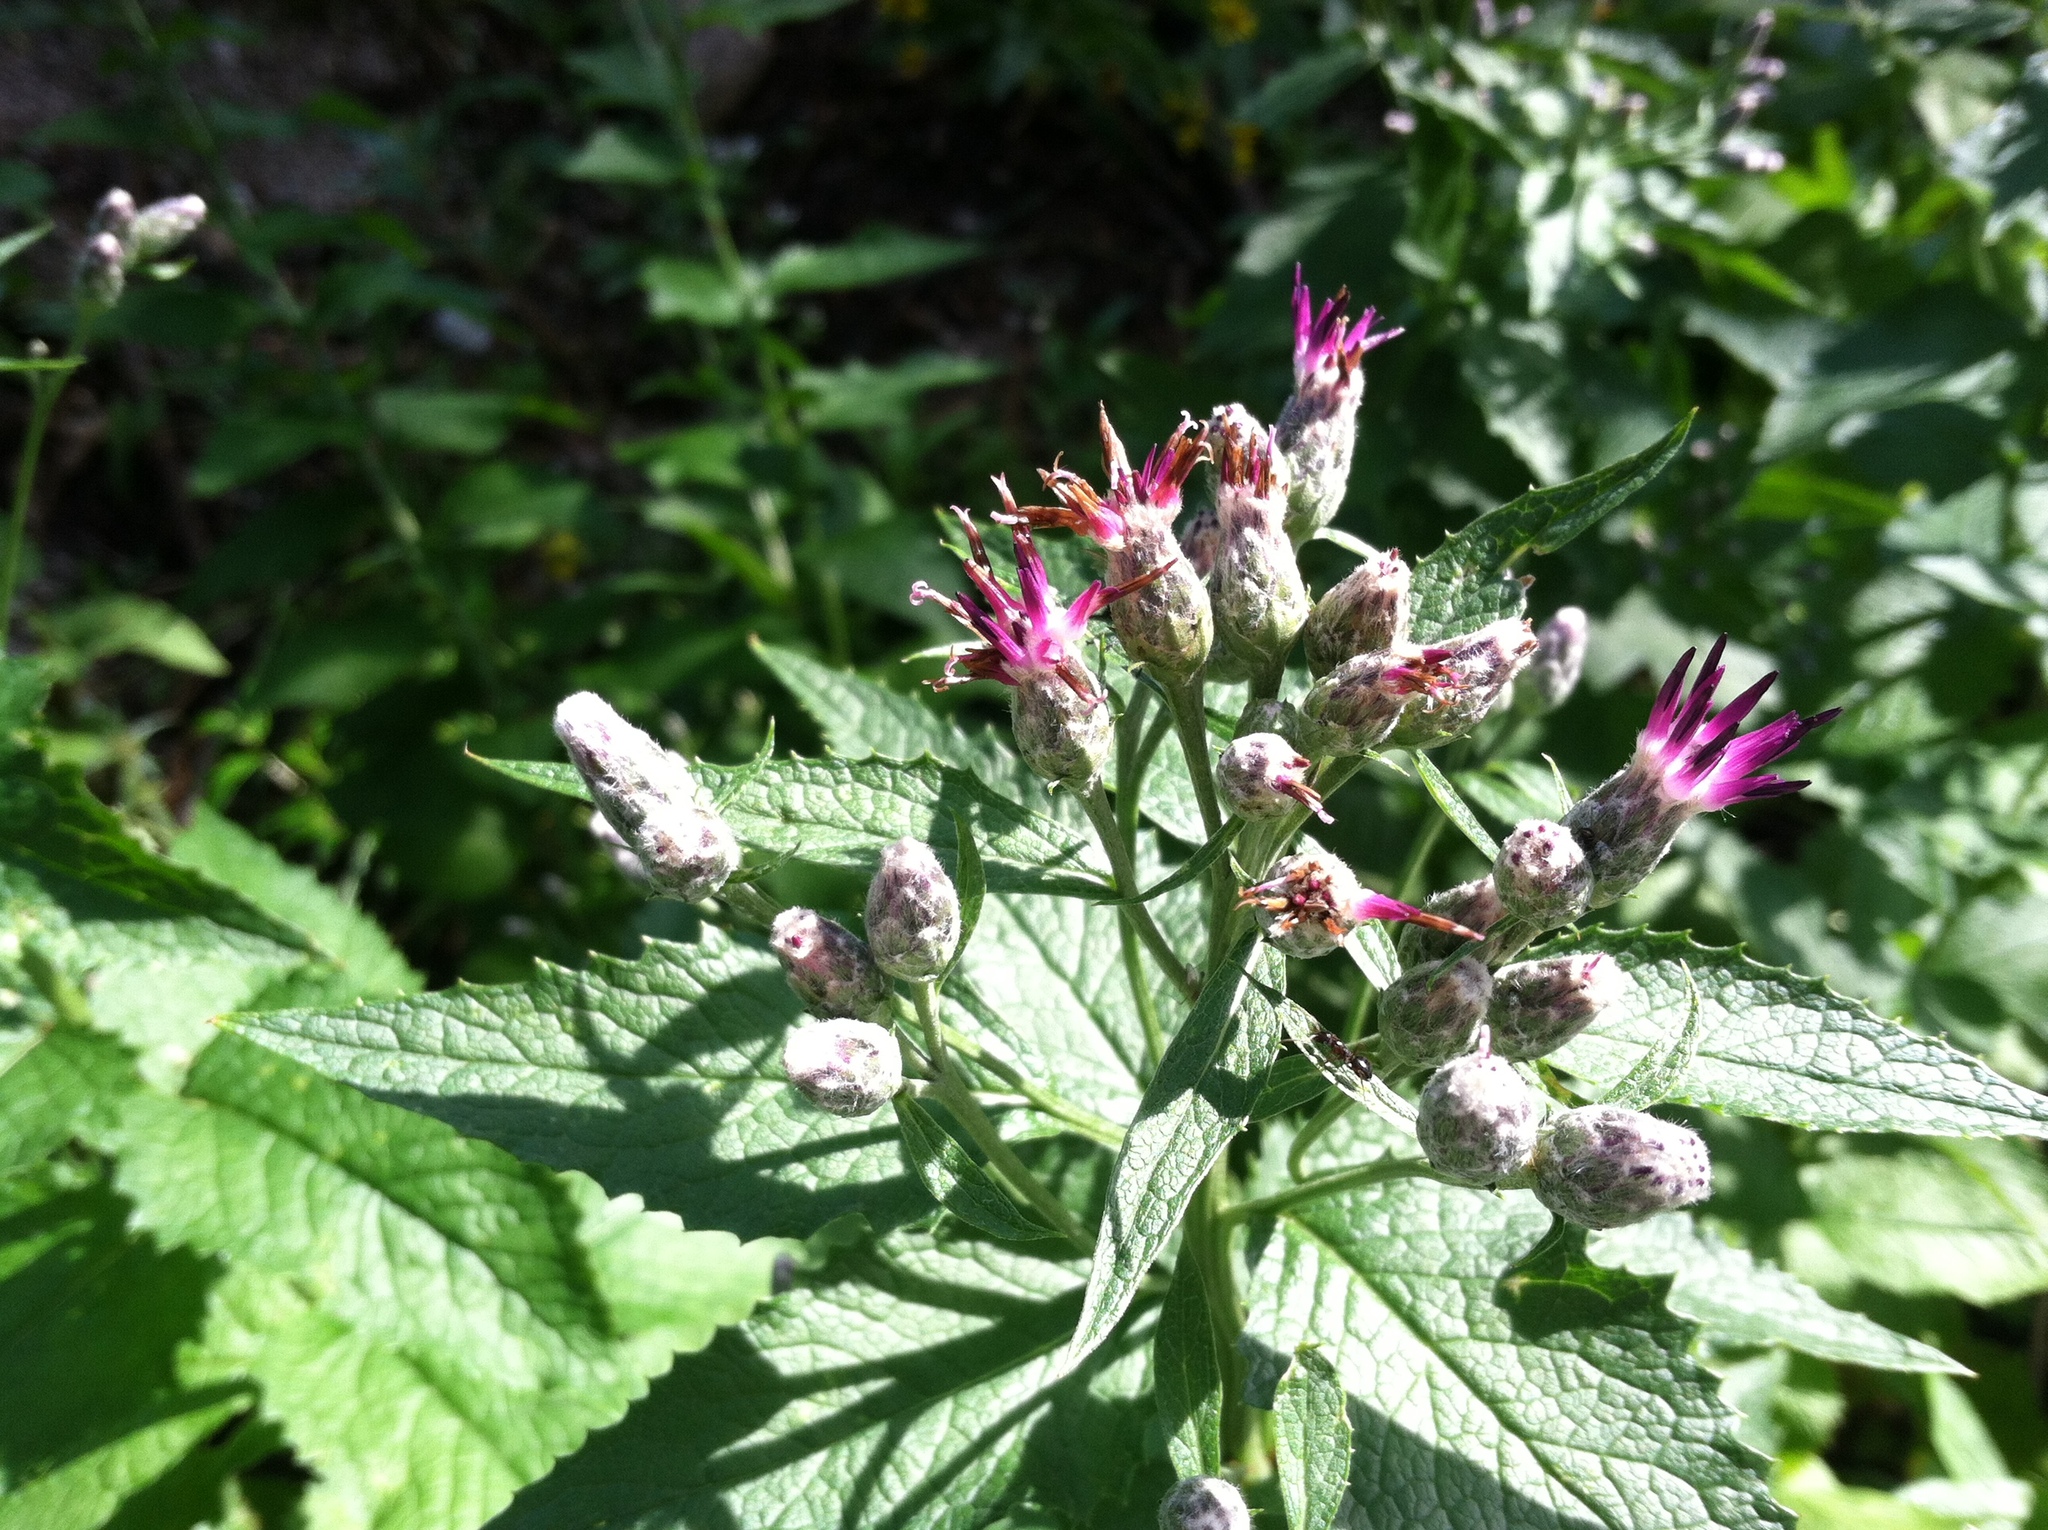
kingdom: Plantae
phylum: Tracheophyta
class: Magnoliopsida
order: Asterales
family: Asteraceae
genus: Saussurea
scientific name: Saussurea americana
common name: American saw-wort
